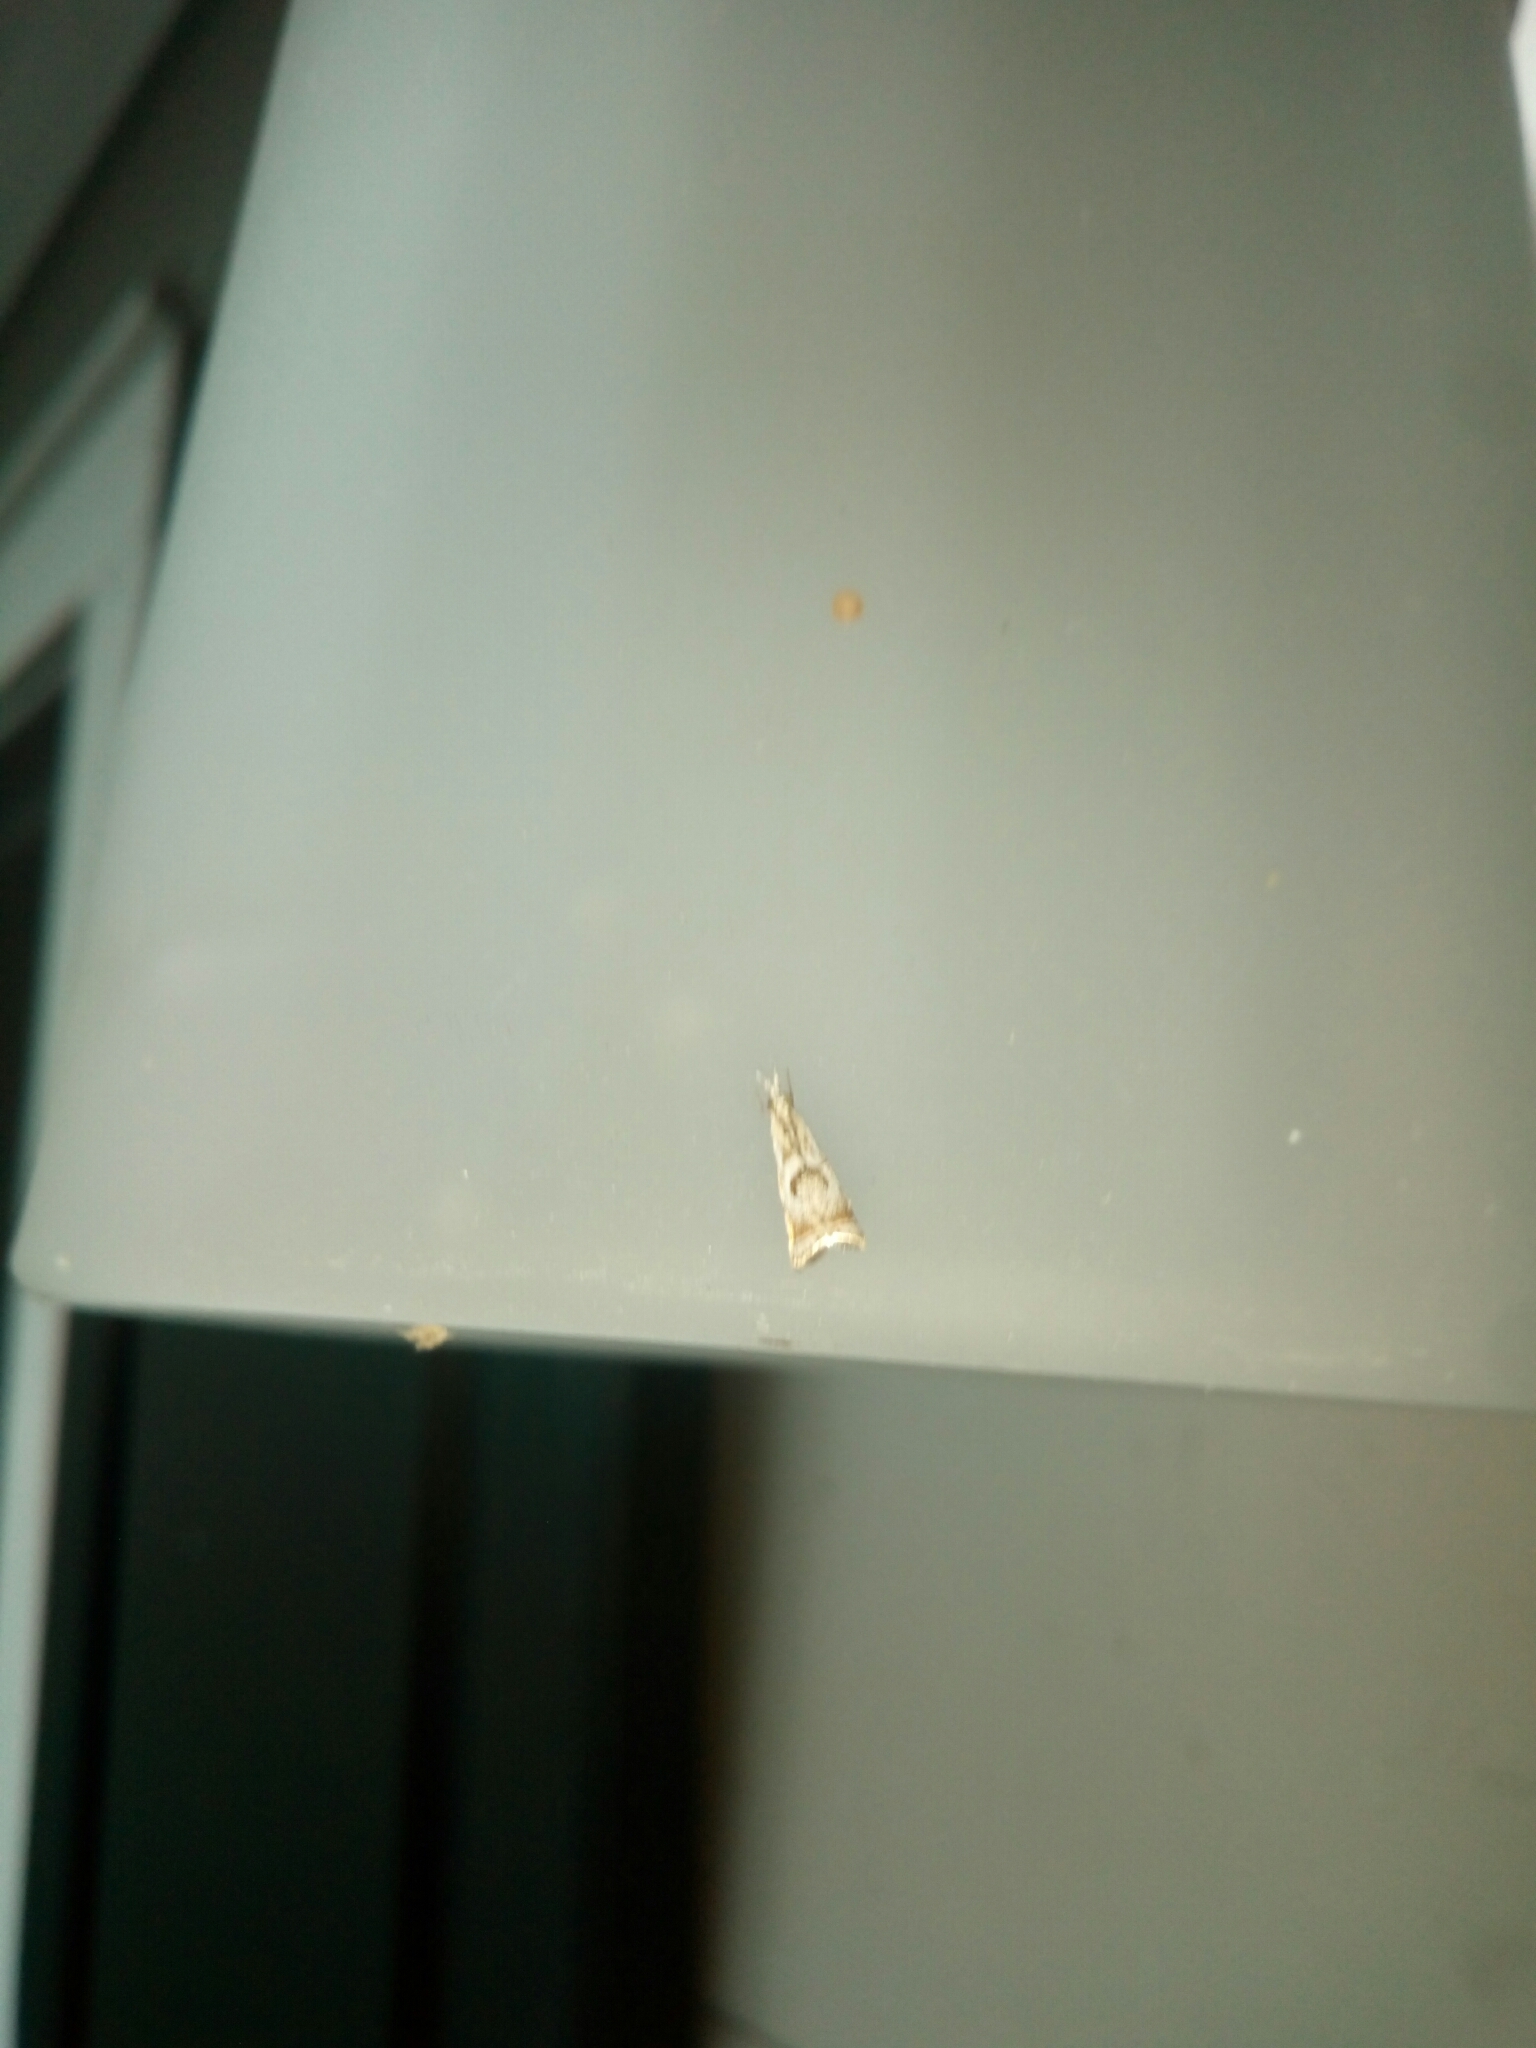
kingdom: Animalia
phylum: Arthropoda
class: Insecta
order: Lepidoptera
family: Crambidae
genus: Microcrambus
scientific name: Microcrambus elegans
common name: Elegant grass-veneer
